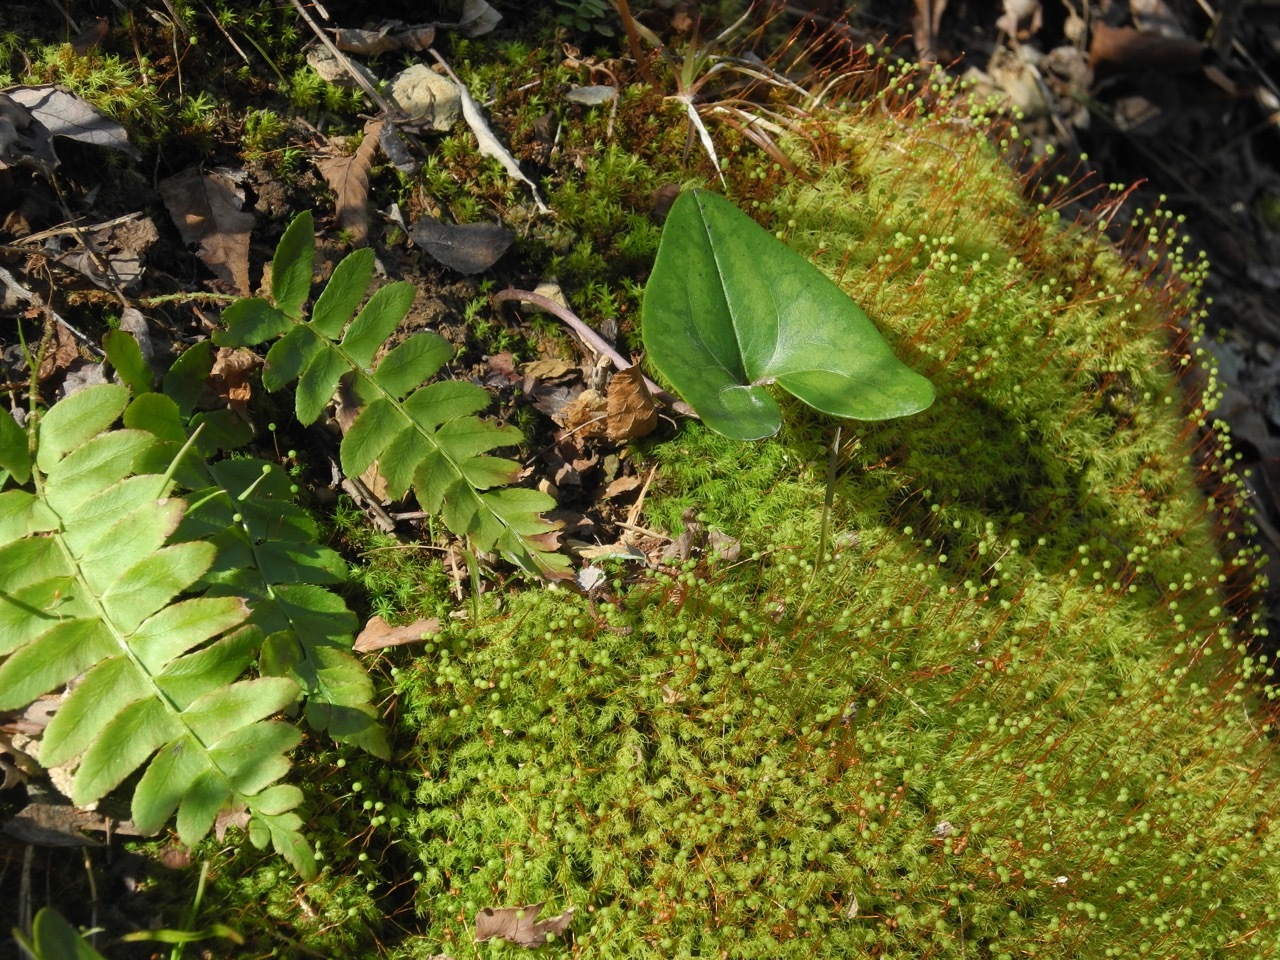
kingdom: Plantae
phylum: Tracheophyta
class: Magnoliopsida
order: Piperales
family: Aristolochiaceae
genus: Hexastylis
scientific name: Hexastylis arifolia
